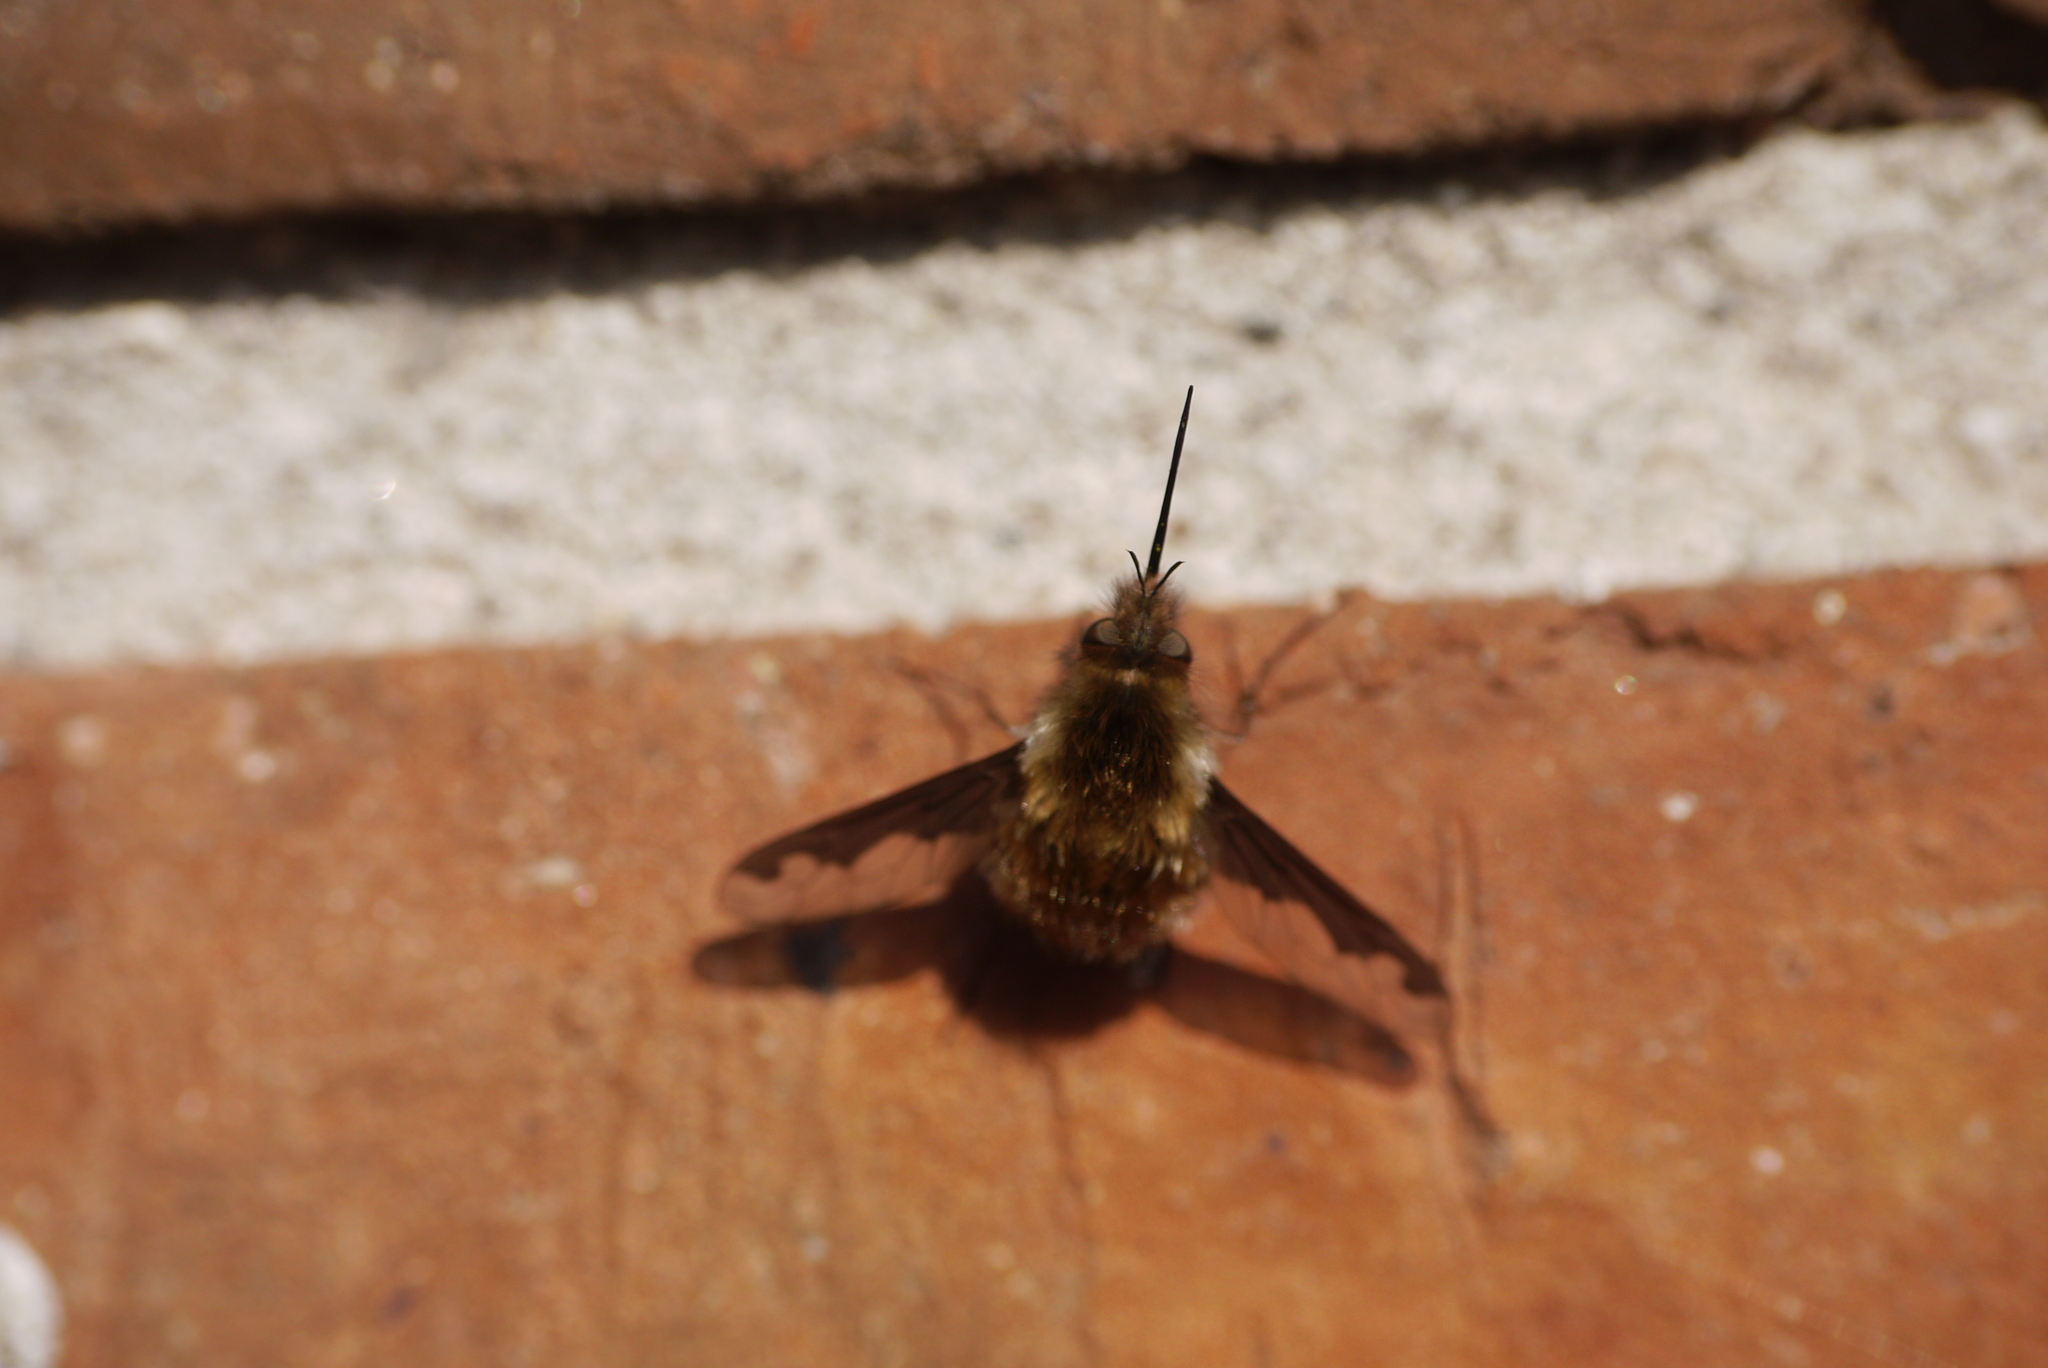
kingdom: Animalia
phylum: Arthropoda
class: Insecta
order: Diptera
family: Bombyliidae
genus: Bombylius
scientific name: Bombylius major
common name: Bee fly
